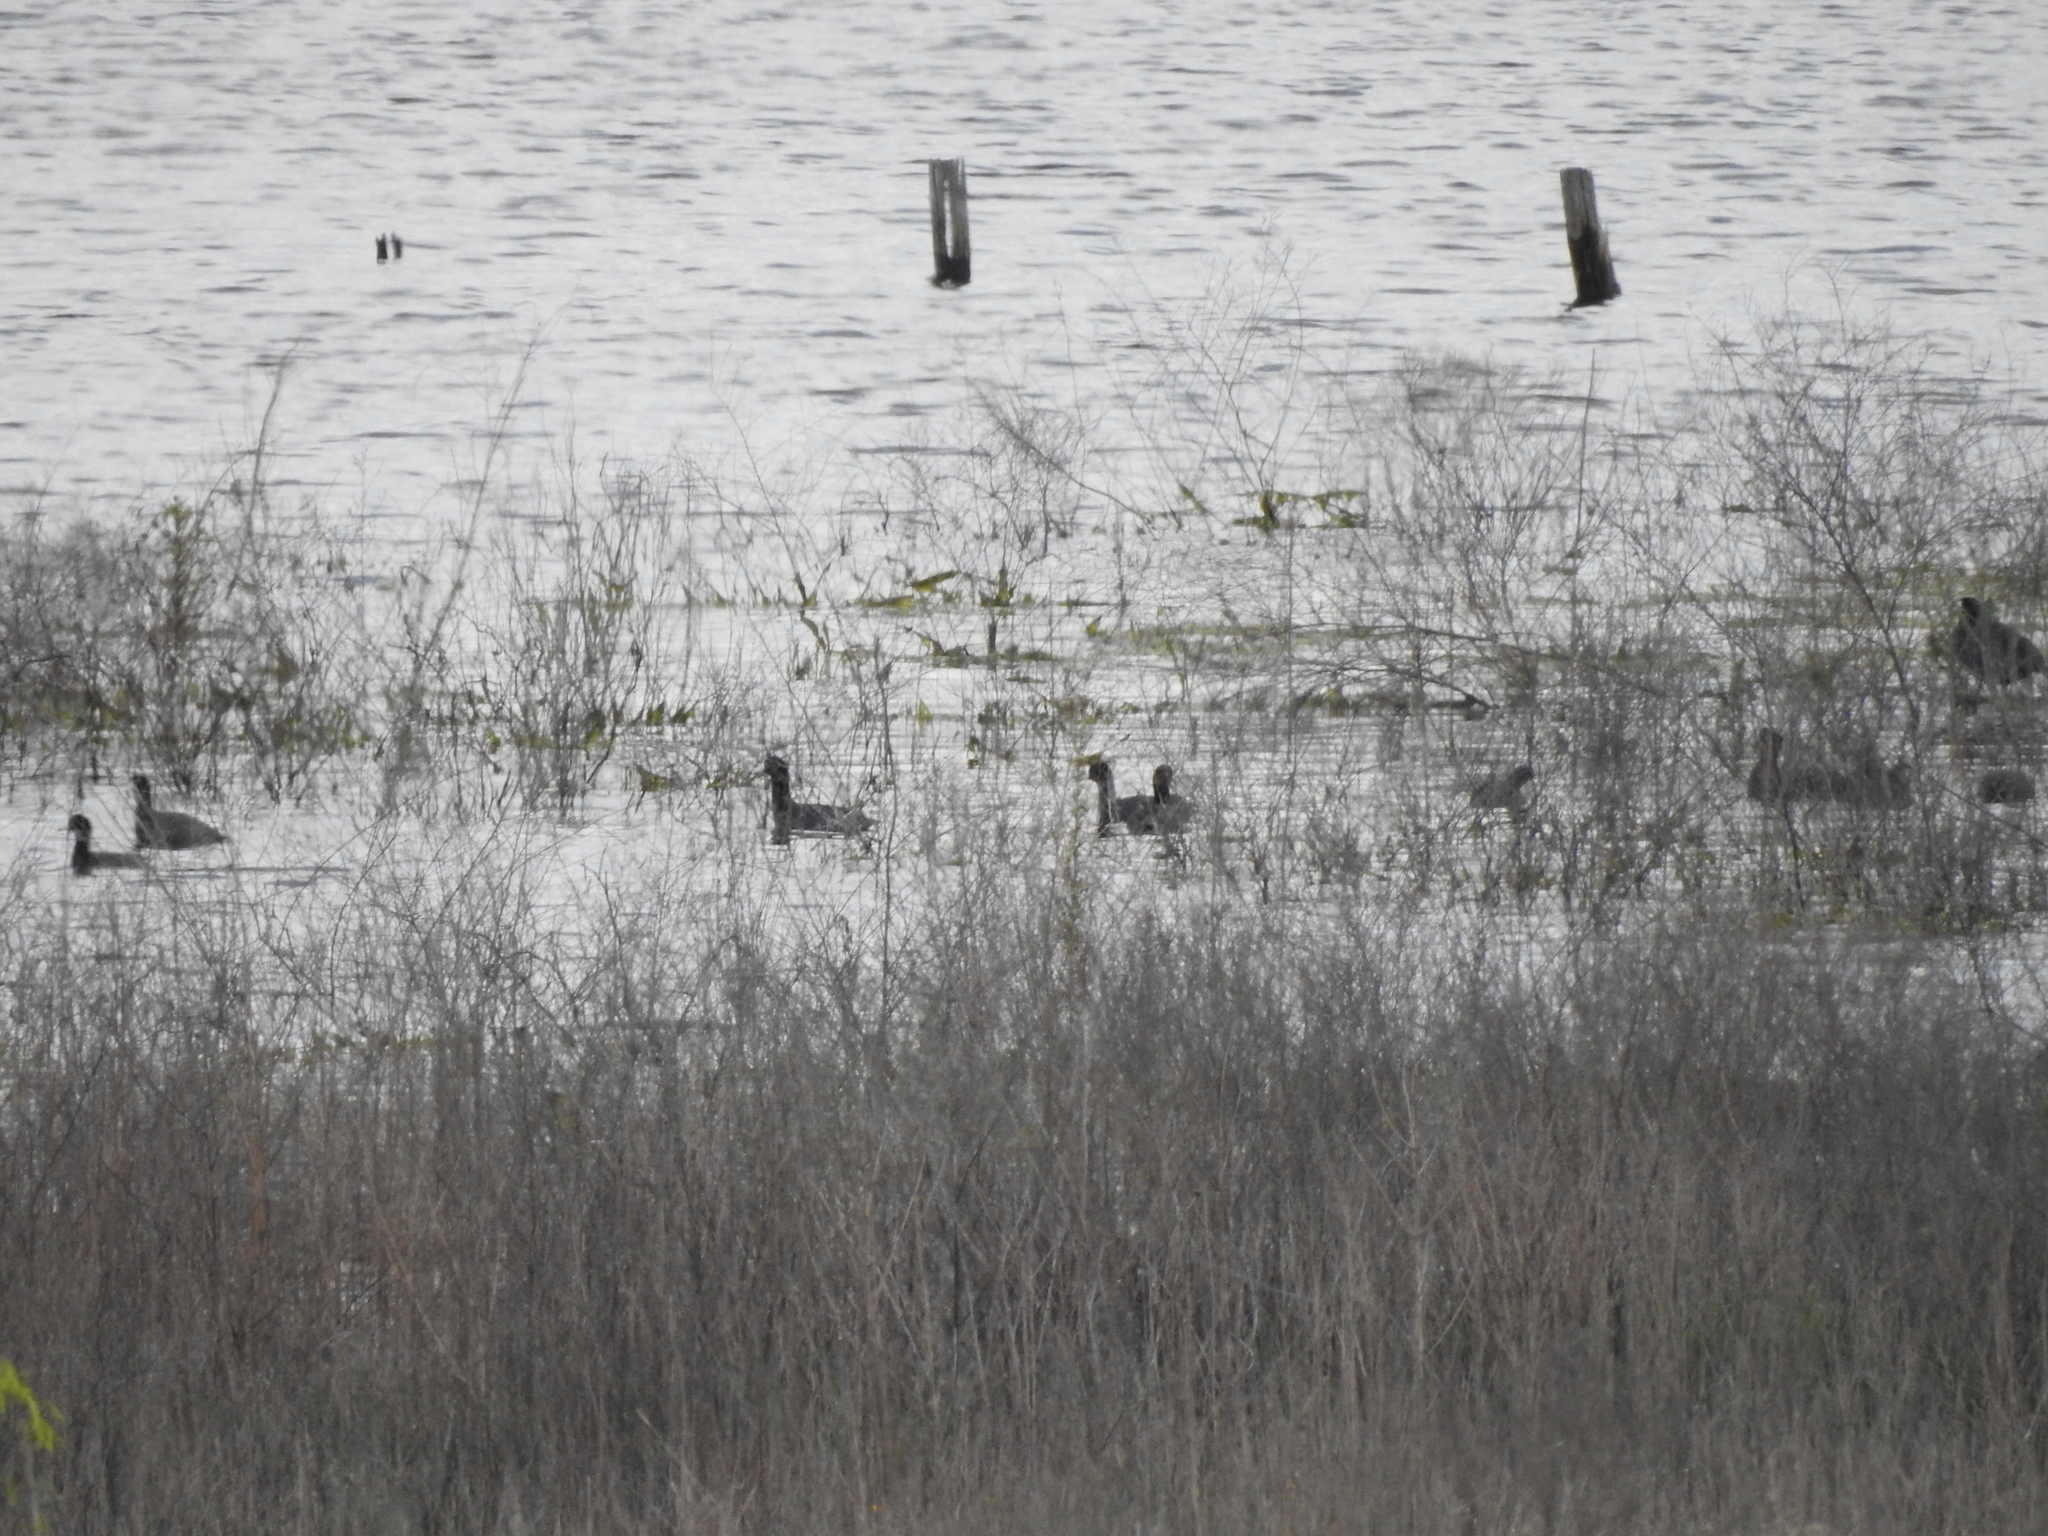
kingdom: Animalia
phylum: Chordata
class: Aves
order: Gruiformes
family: Rallidae
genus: Fulica
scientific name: Fulica americana
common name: American coot
